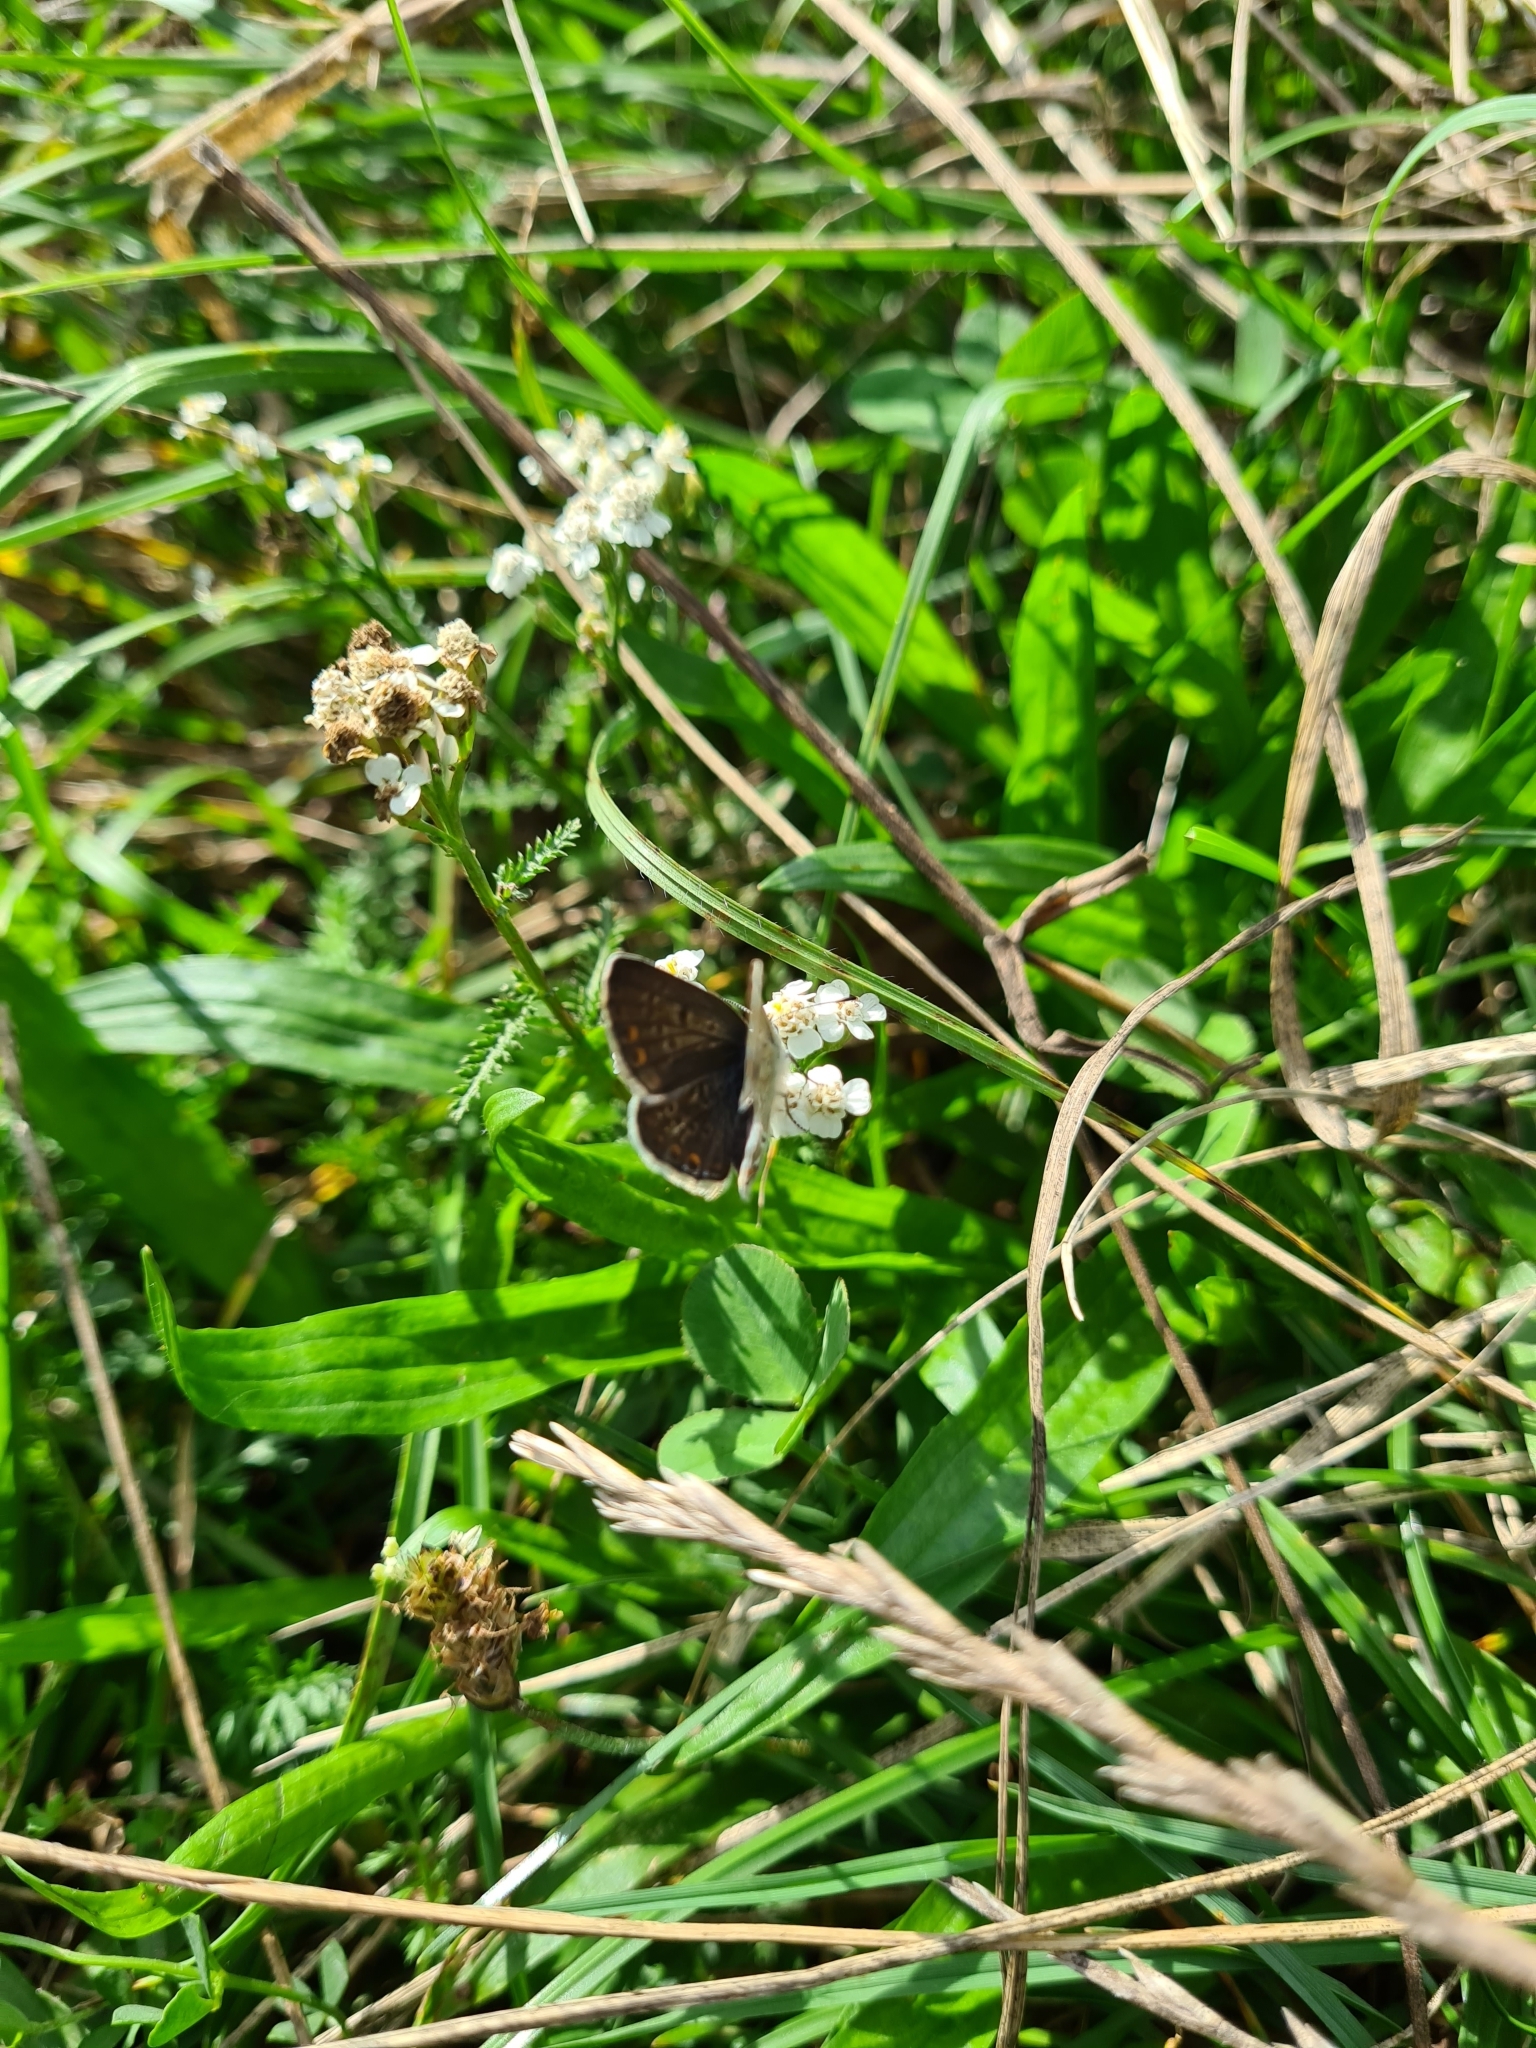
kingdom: Animalia
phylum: Arthropoda
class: Insecta
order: Lepidoptera
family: Lycaenidae
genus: Polyommatus
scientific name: Polyommatus icarus
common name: Common blue
